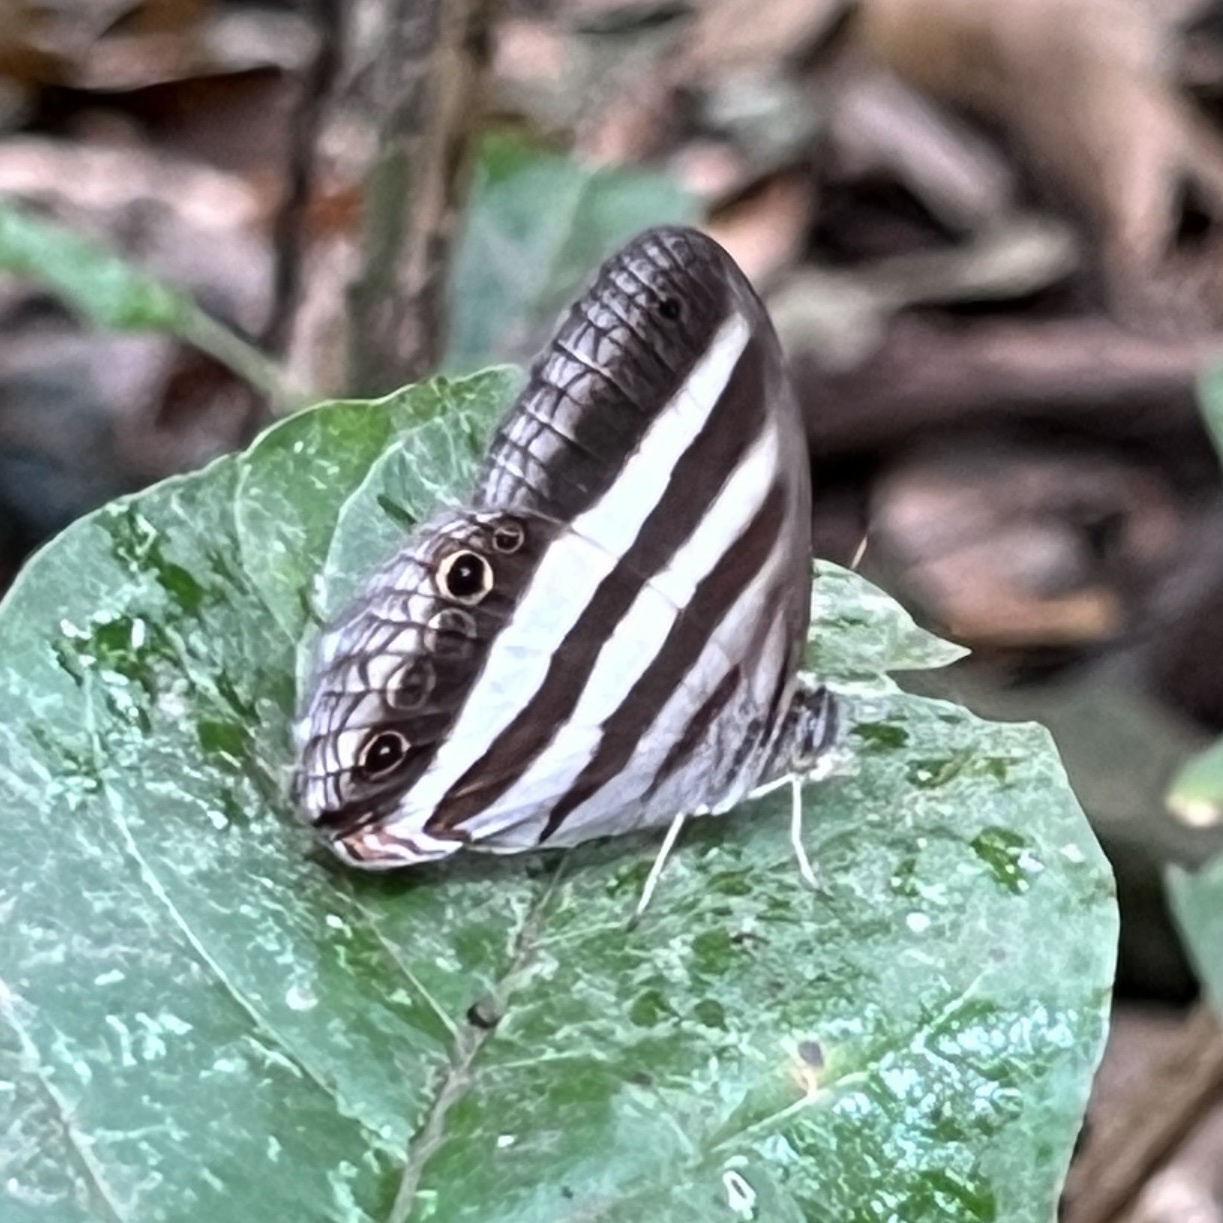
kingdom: Animalia
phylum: Arthropoda
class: Insecta
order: Lepidoptera
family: Nymphalidae
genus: Pareuptychia
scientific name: Pareuptychia hesione
